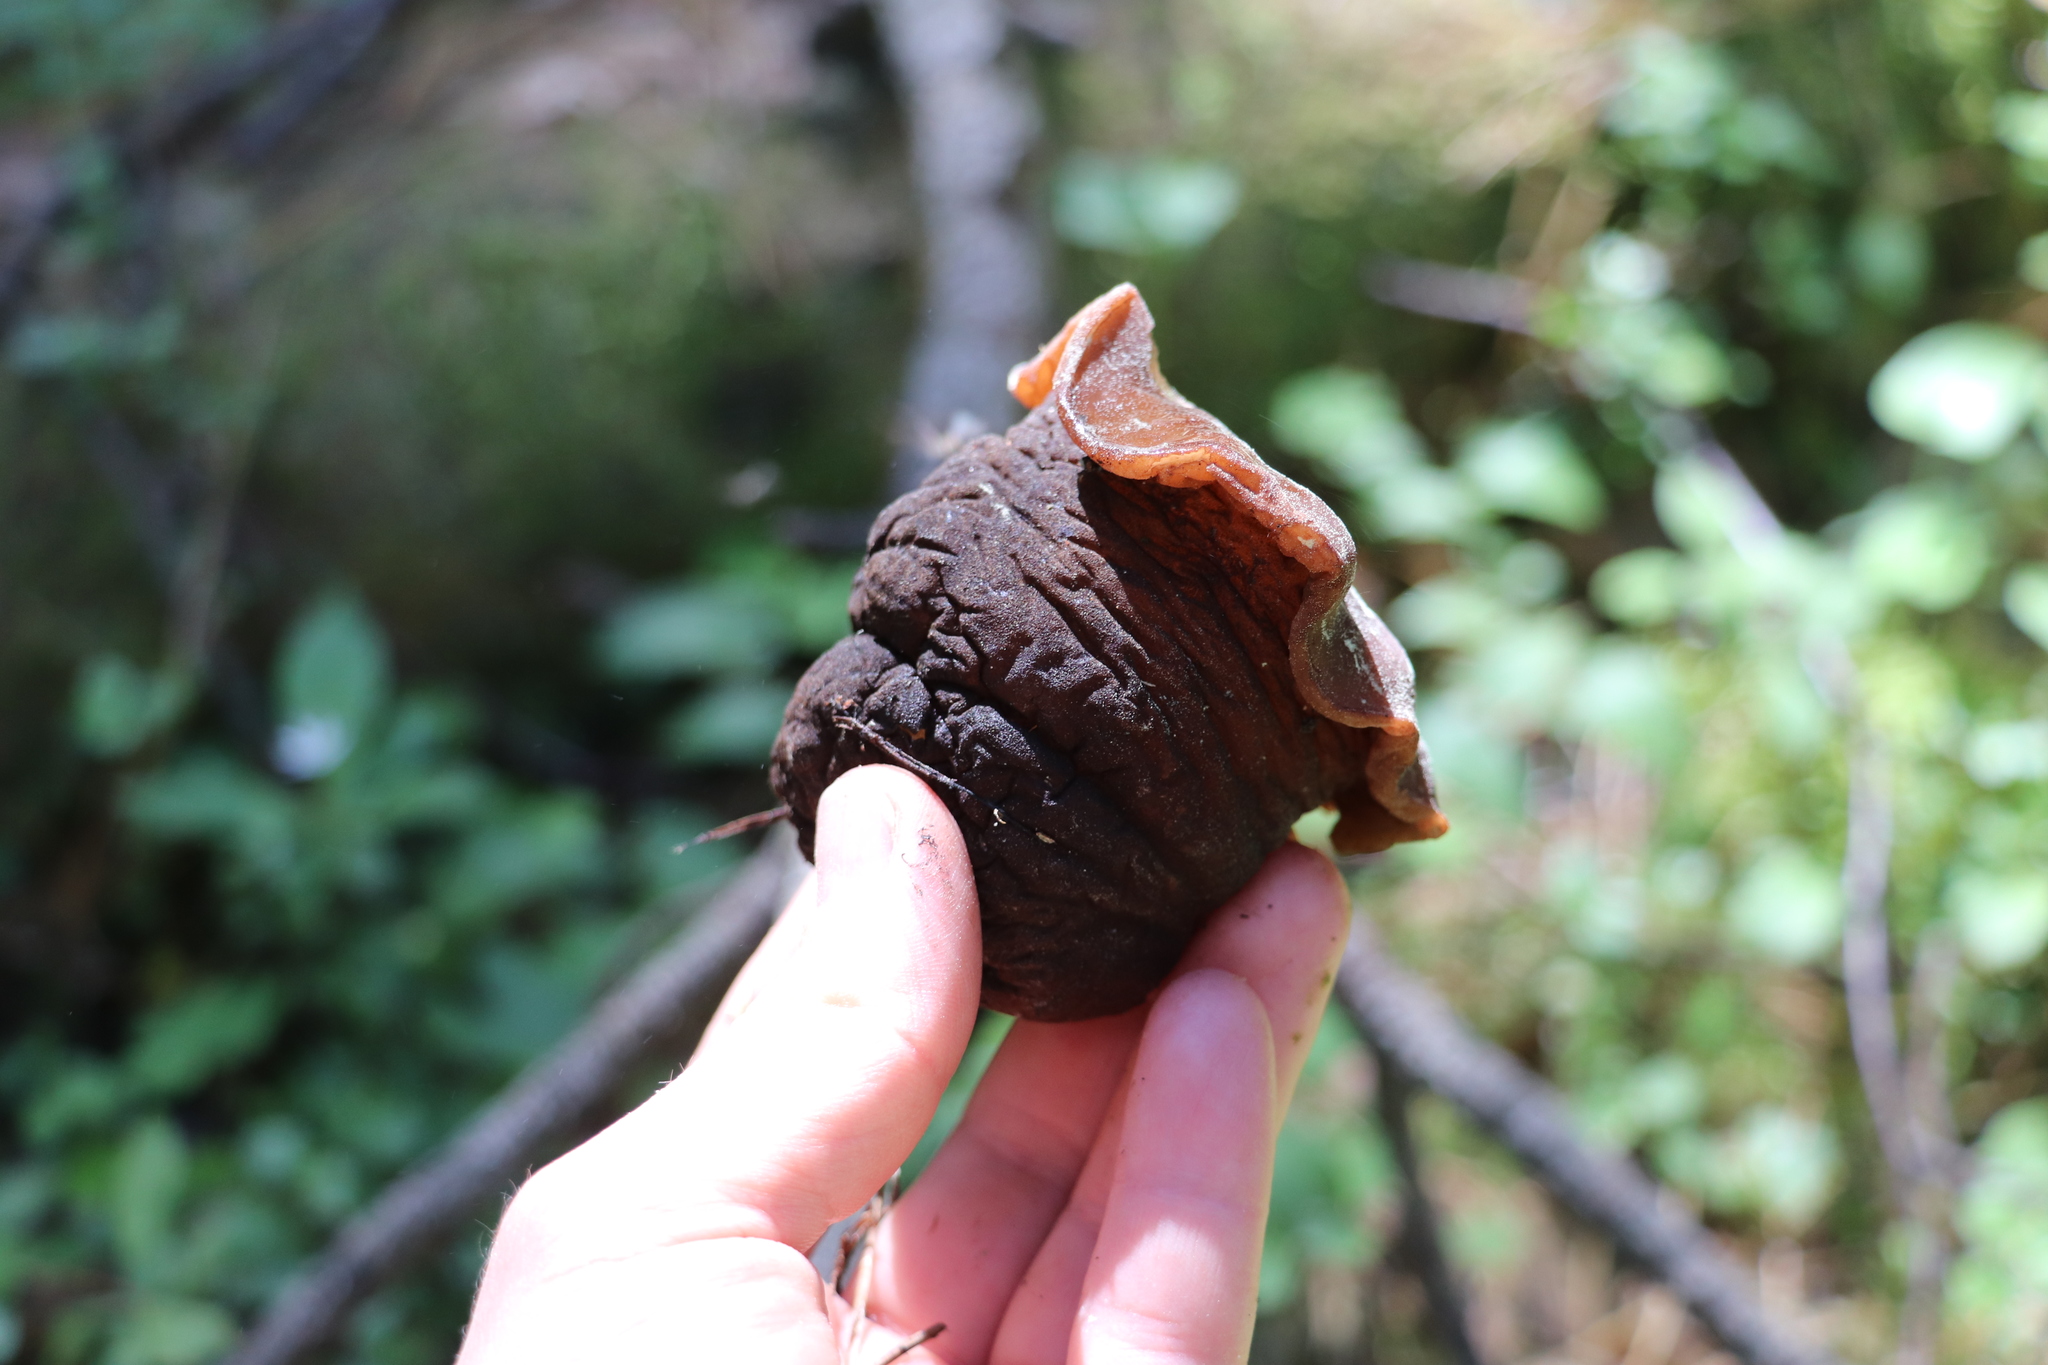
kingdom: Fungi
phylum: Ascomycota
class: Pezizomycetes
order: Pezizales
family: Sarcosomataceae
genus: Sarcosoma
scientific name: Sarcosoma globosum
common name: Charred-pancake cup
